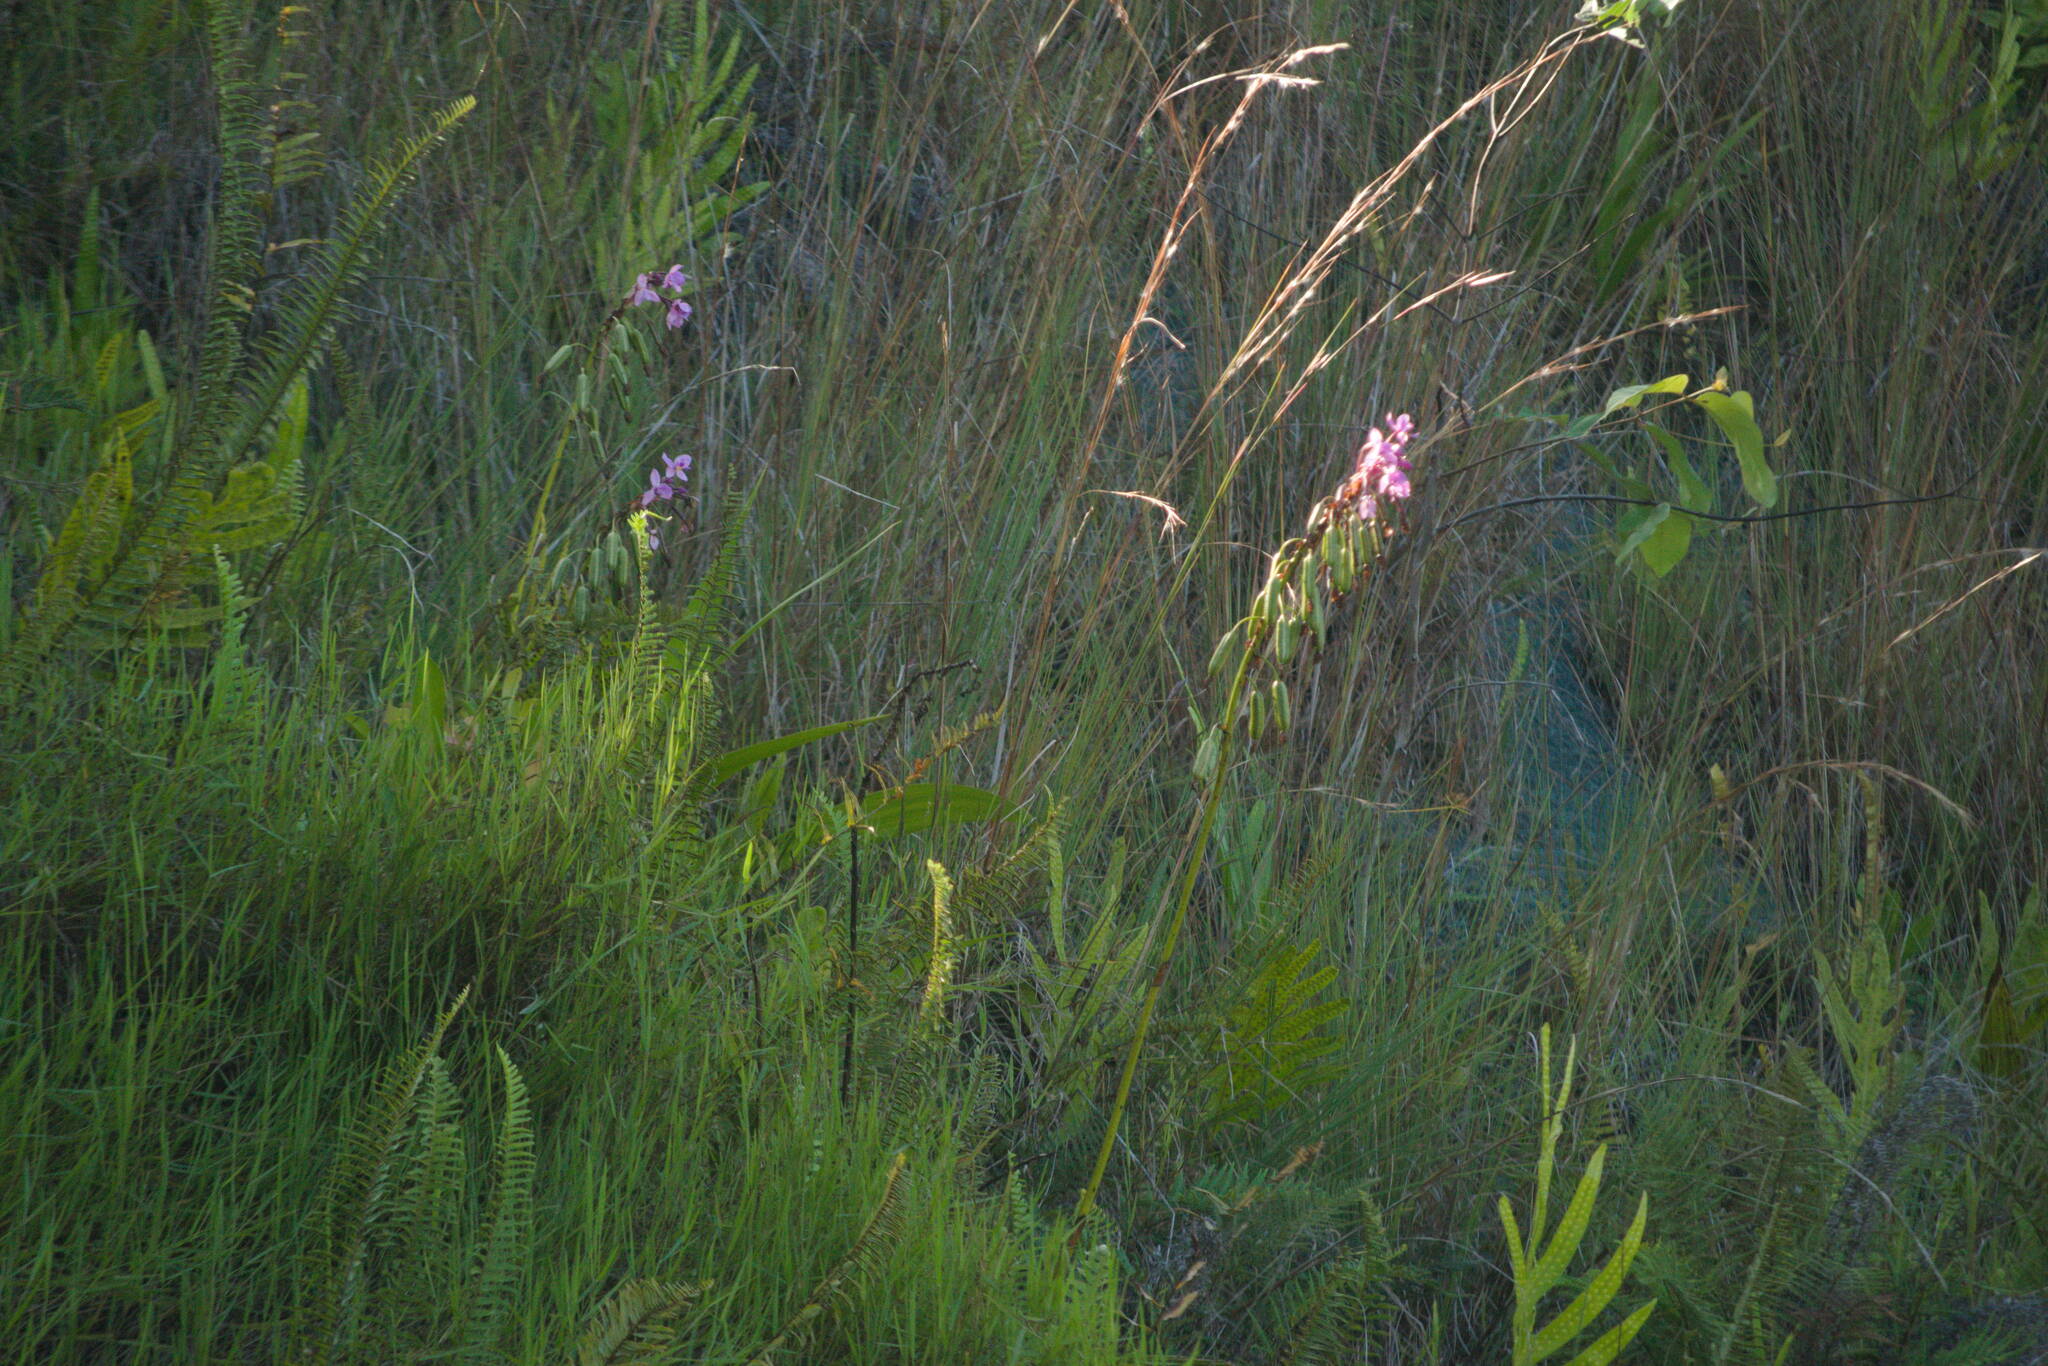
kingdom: Plantae
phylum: Tracheophyta
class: Liliopsida
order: Asparagales
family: Orchidaceae
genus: Spathoglottis
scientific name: Spathoglottis plicata
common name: Philippine ground orchid
